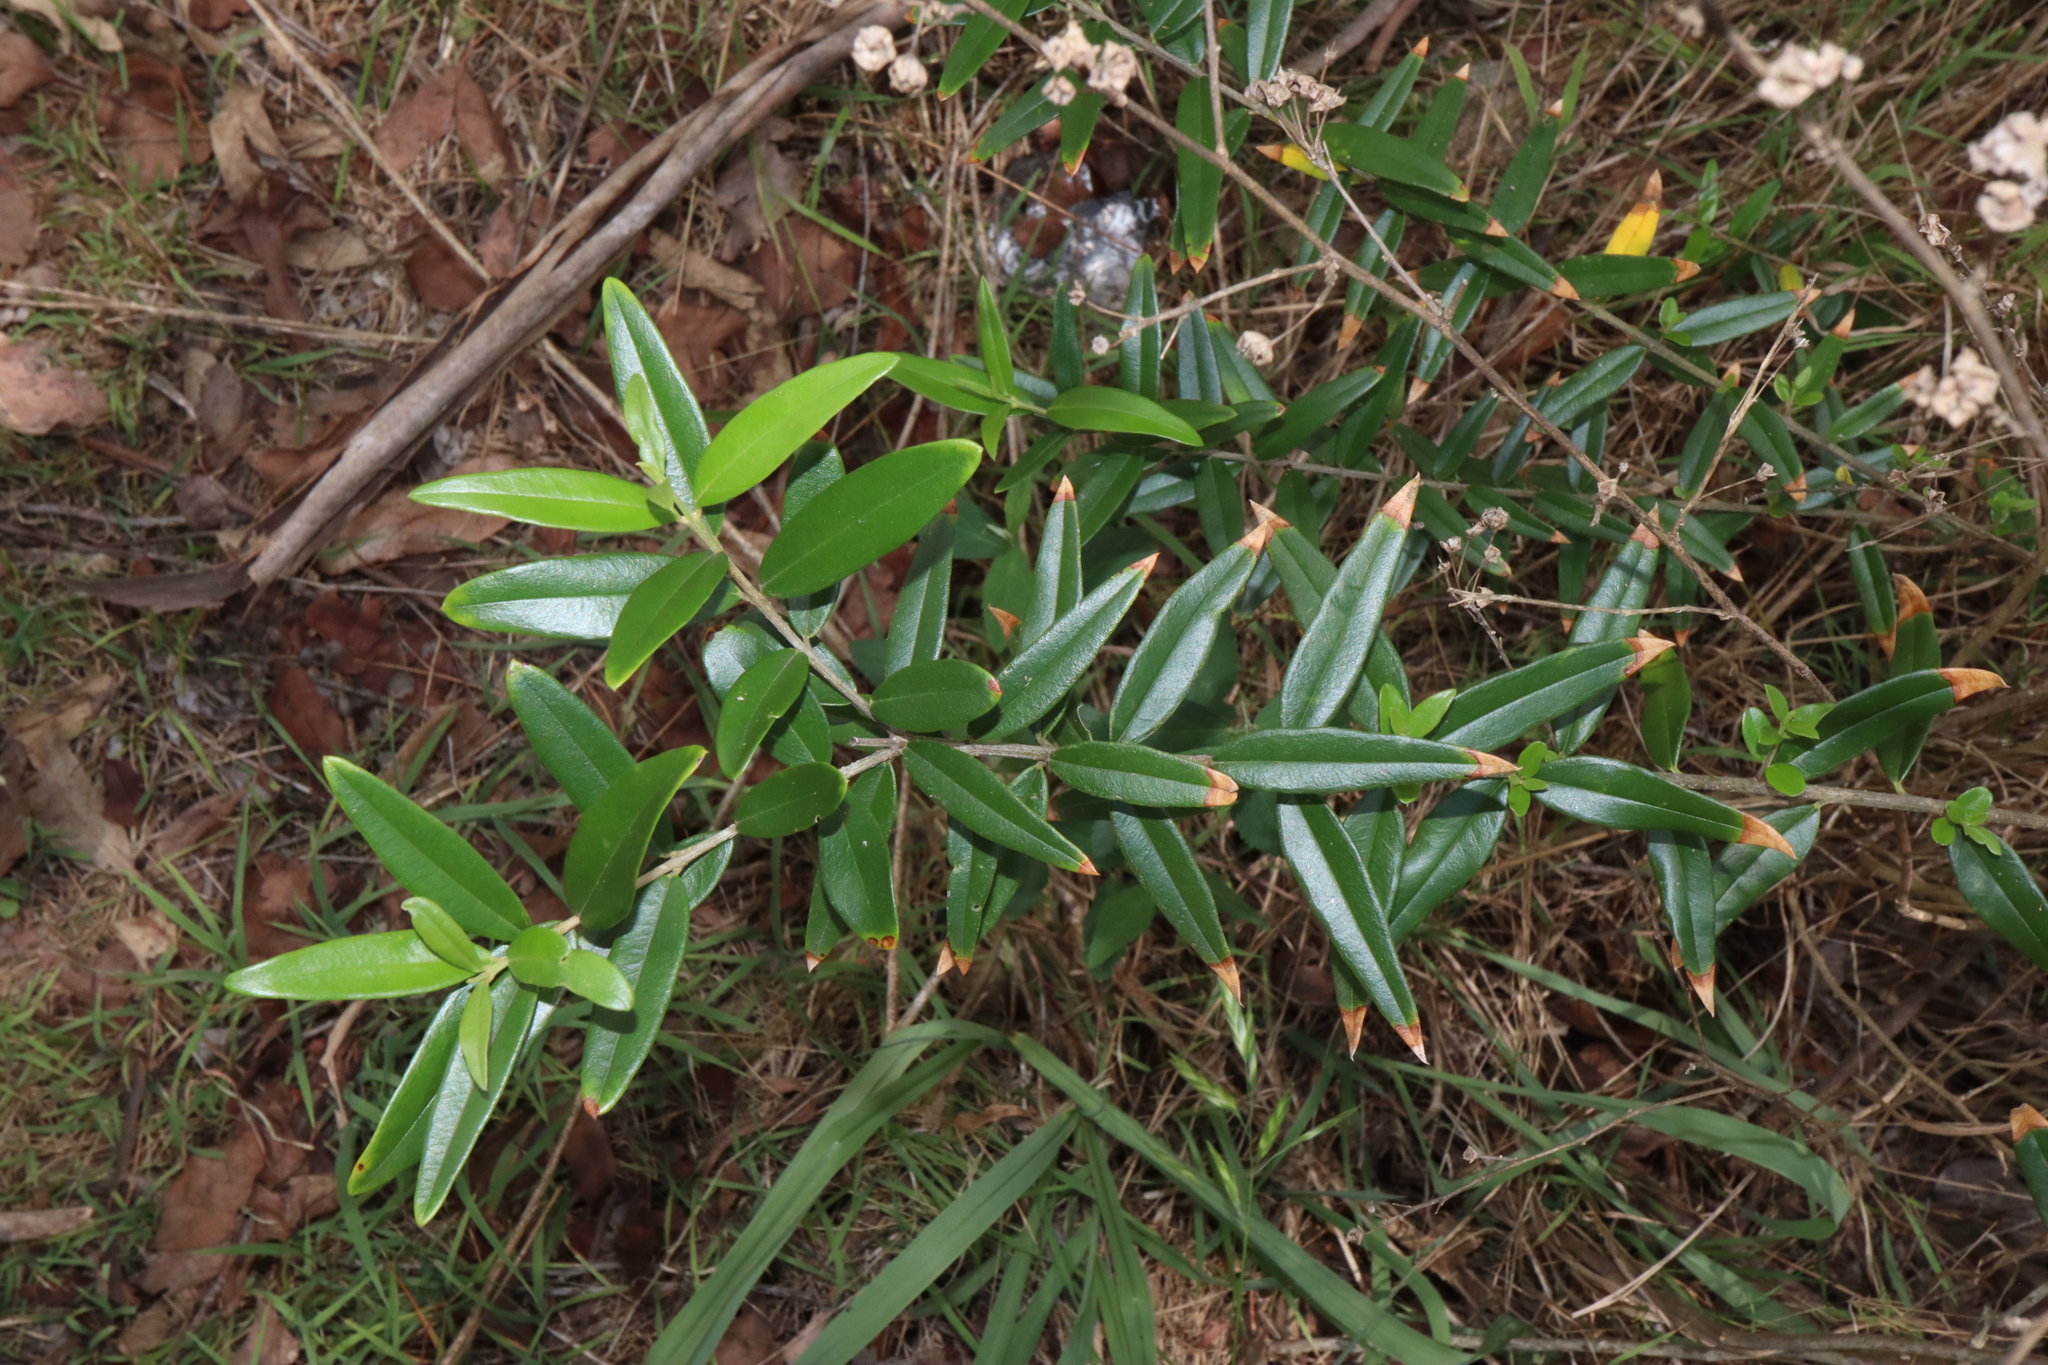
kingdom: Plantae
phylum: Tracheophyta
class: Magnoliopsida
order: Lamiales
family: Oleaceae
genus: Olea
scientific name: Olea europaea
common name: Olive
